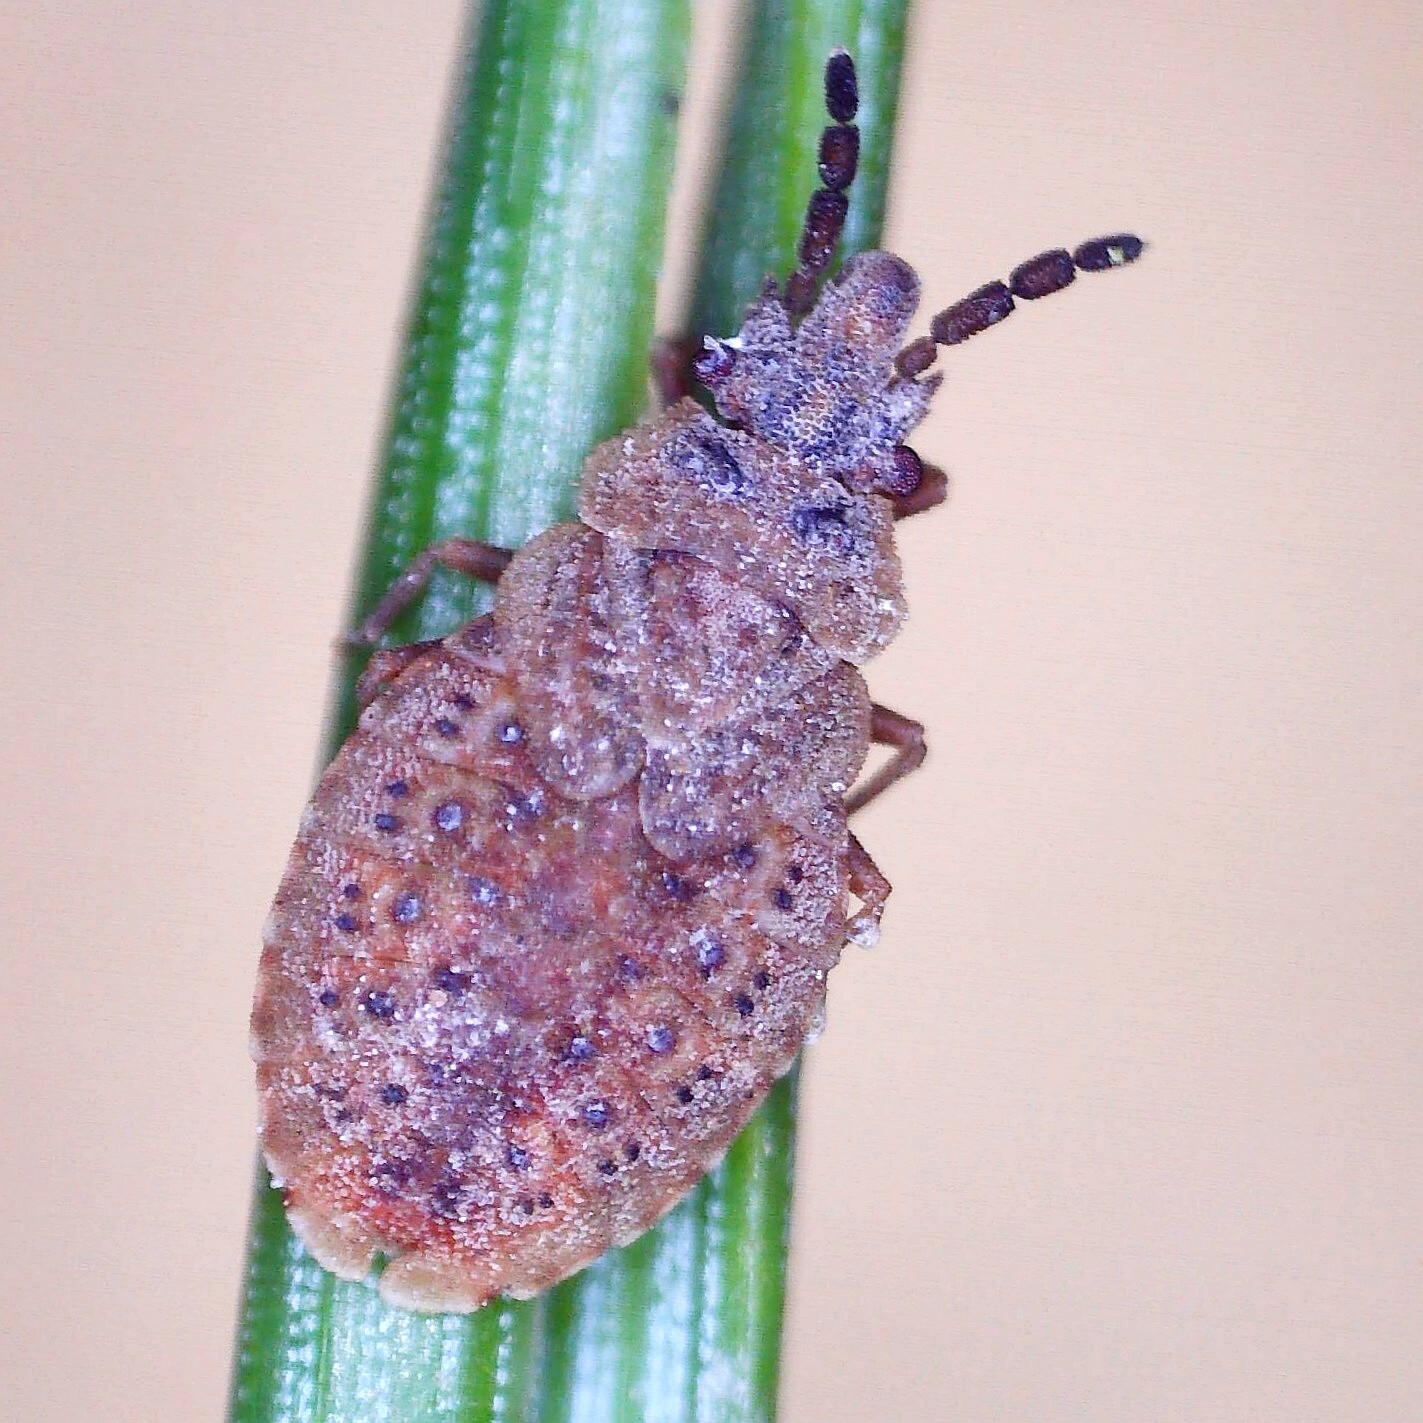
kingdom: Animalia
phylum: Arthropoda
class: Insecta
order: Hemiptera
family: Aradidae
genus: Aradus
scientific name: Aradus cinnamomeus
